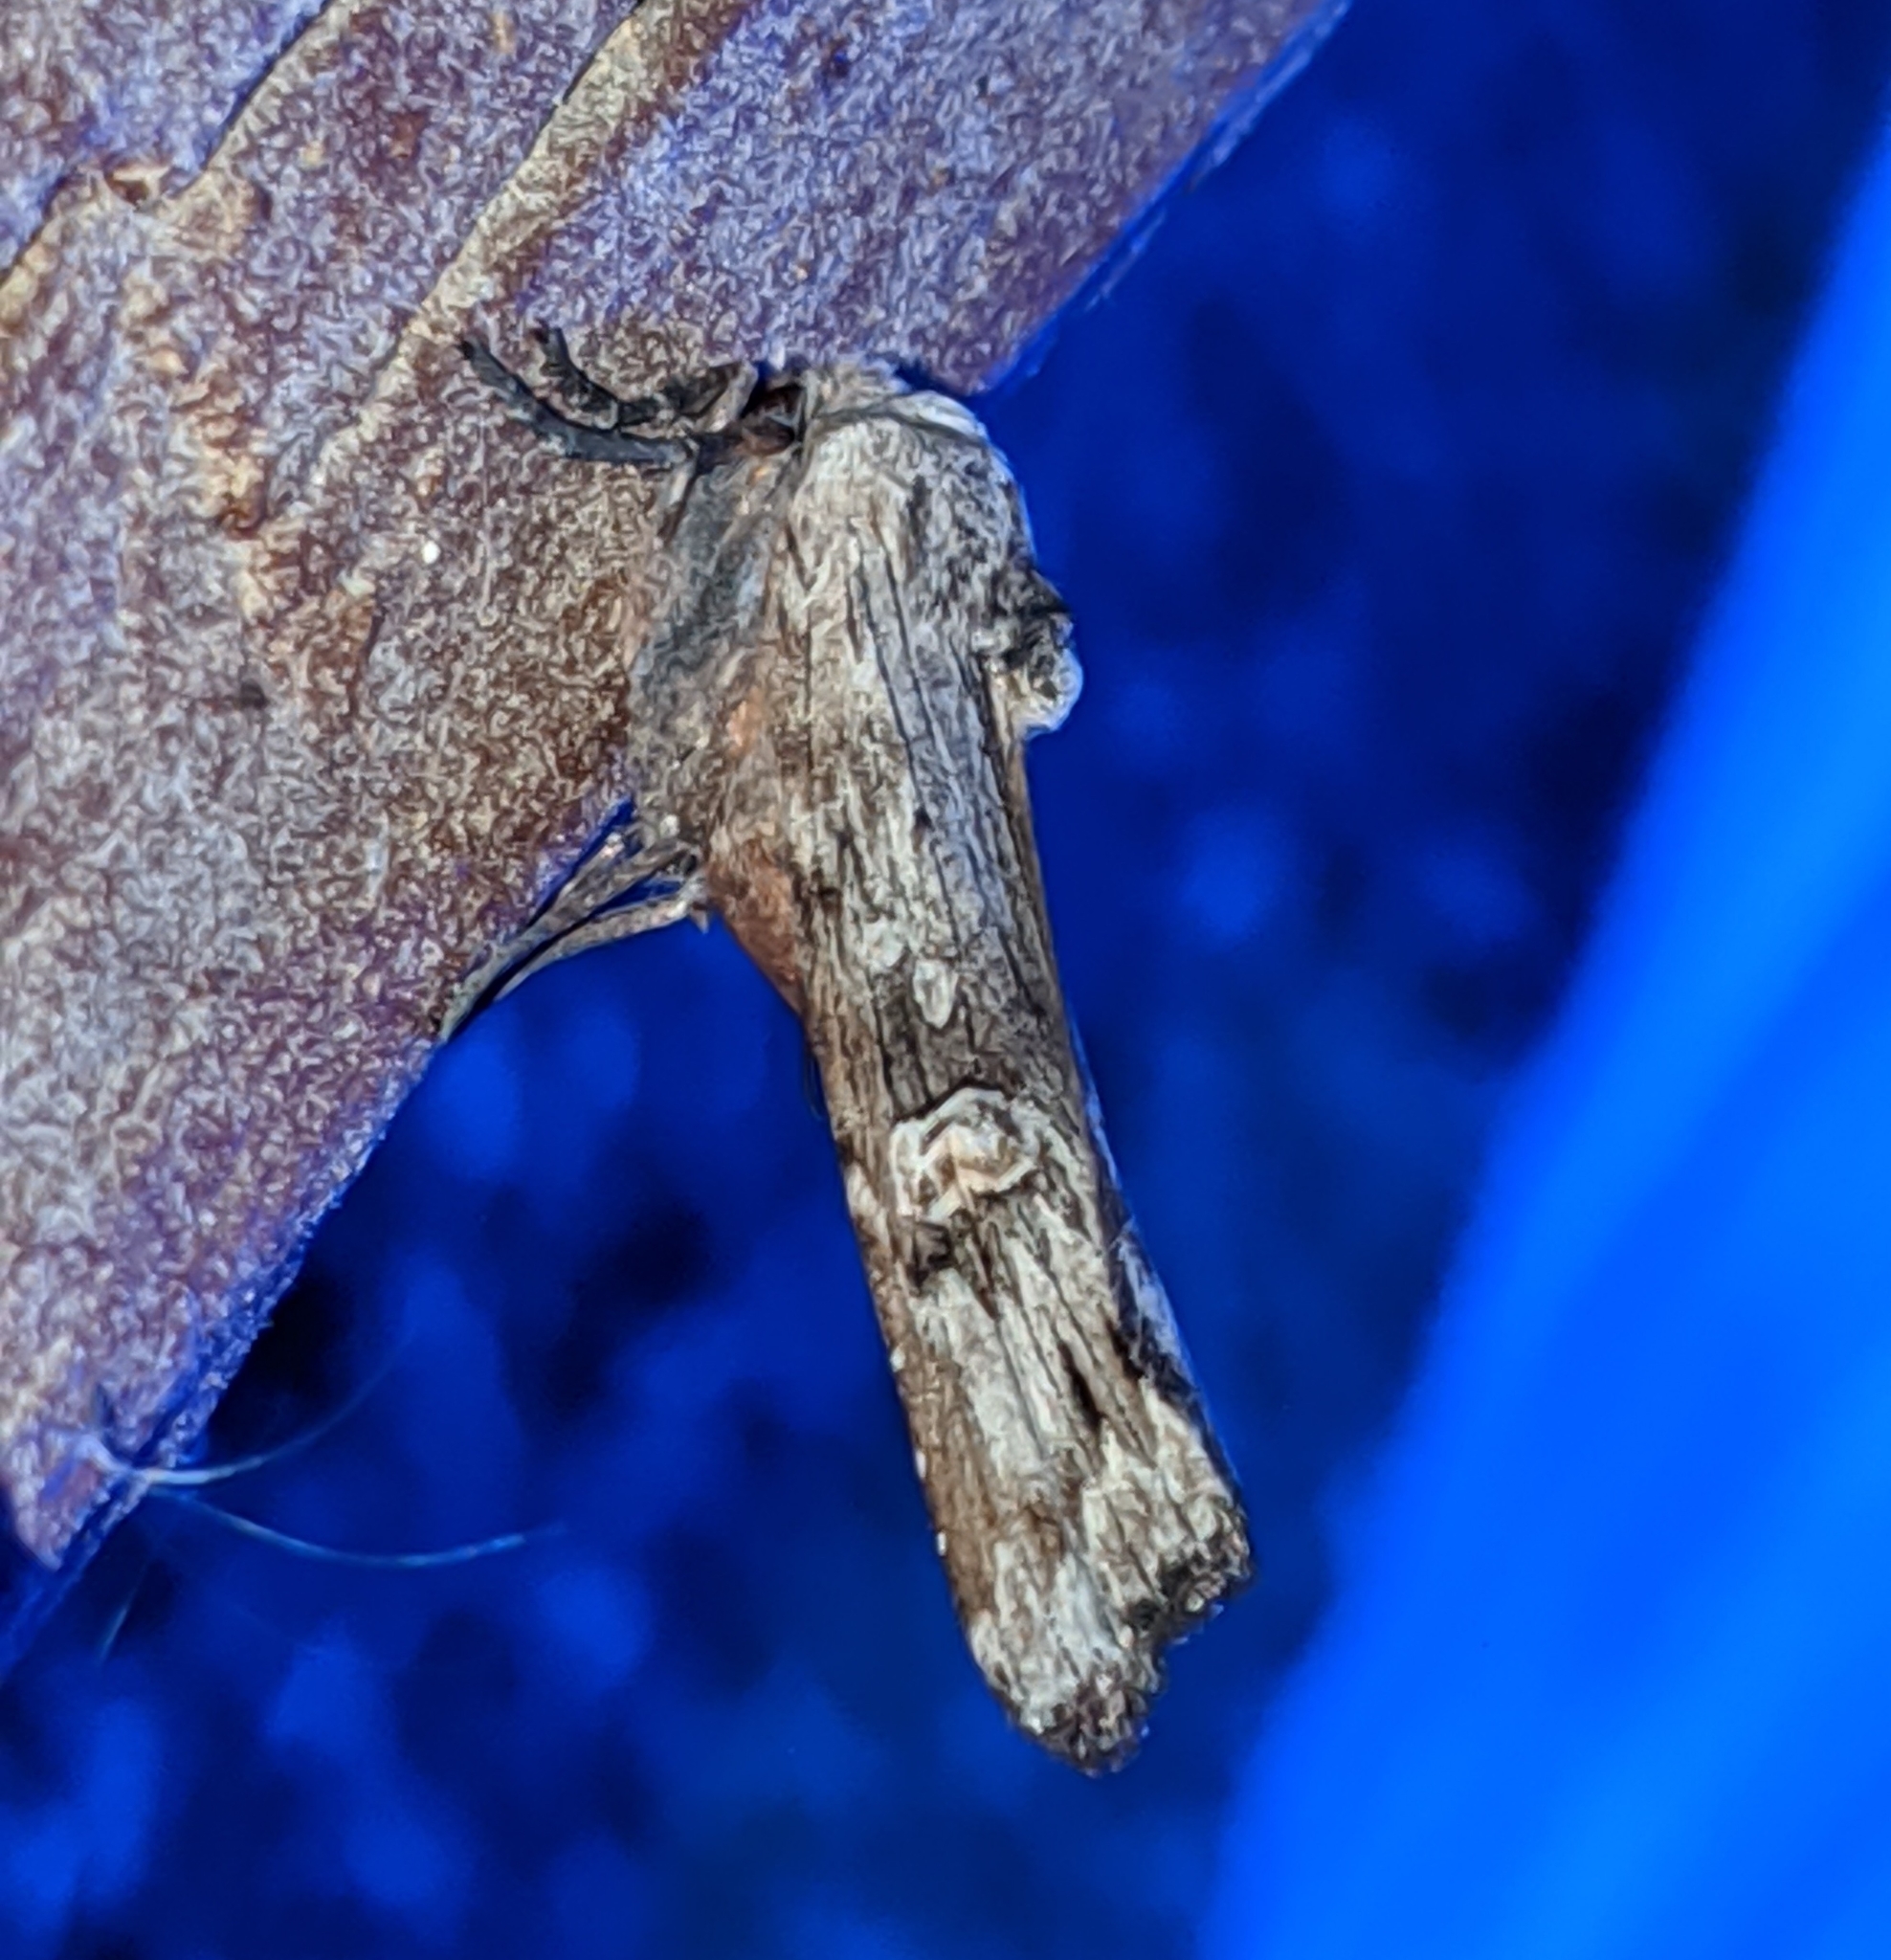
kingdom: Animalia
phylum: Arthropoda
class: Insecta
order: Lepidoptera
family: Noctuidae
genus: Xylena
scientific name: Xylena germana
